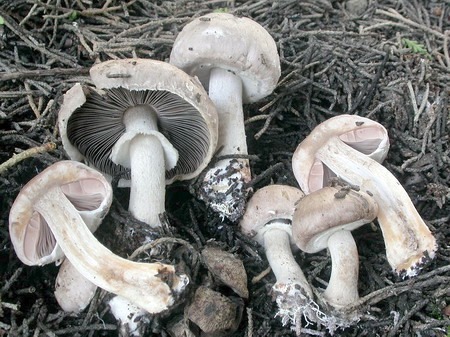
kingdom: Fungi
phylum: Basidiomycota
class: Agaricomycetes
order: Agaricales
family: Agaricaceae
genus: Agaricus
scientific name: Agaricus cupressicola
